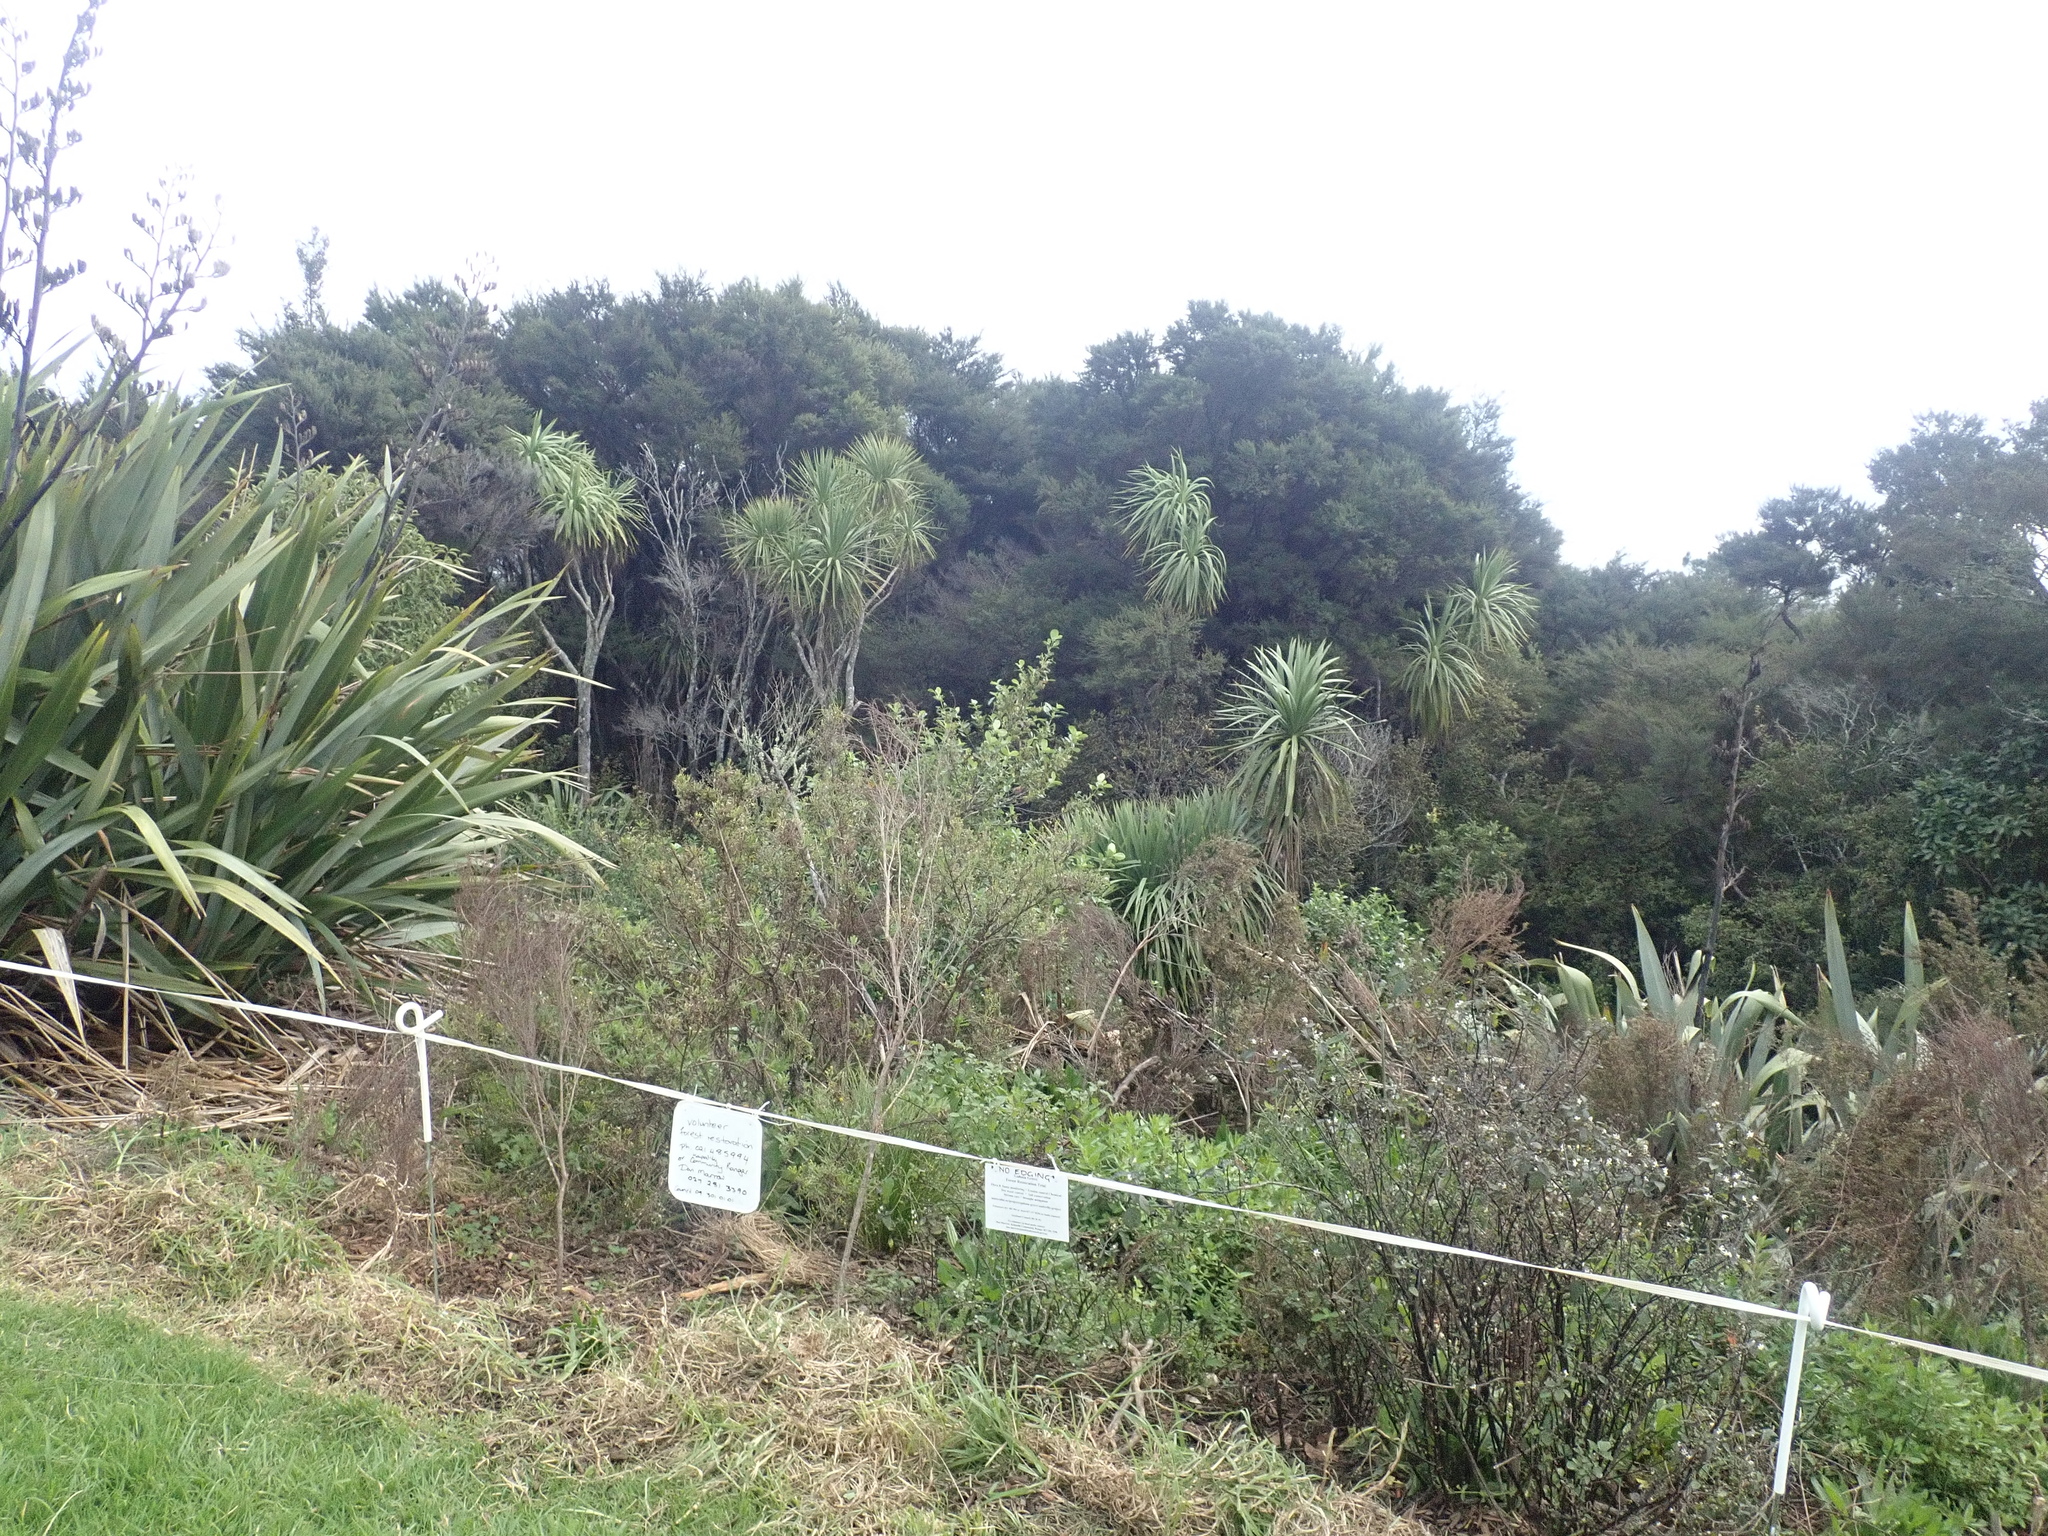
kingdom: Plantae
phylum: Tracheophyta
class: Liliopsida
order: Poales
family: Poaceae
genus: Cenchrus
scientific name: Cenchrus clandestinus
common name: Kikuyugrass
